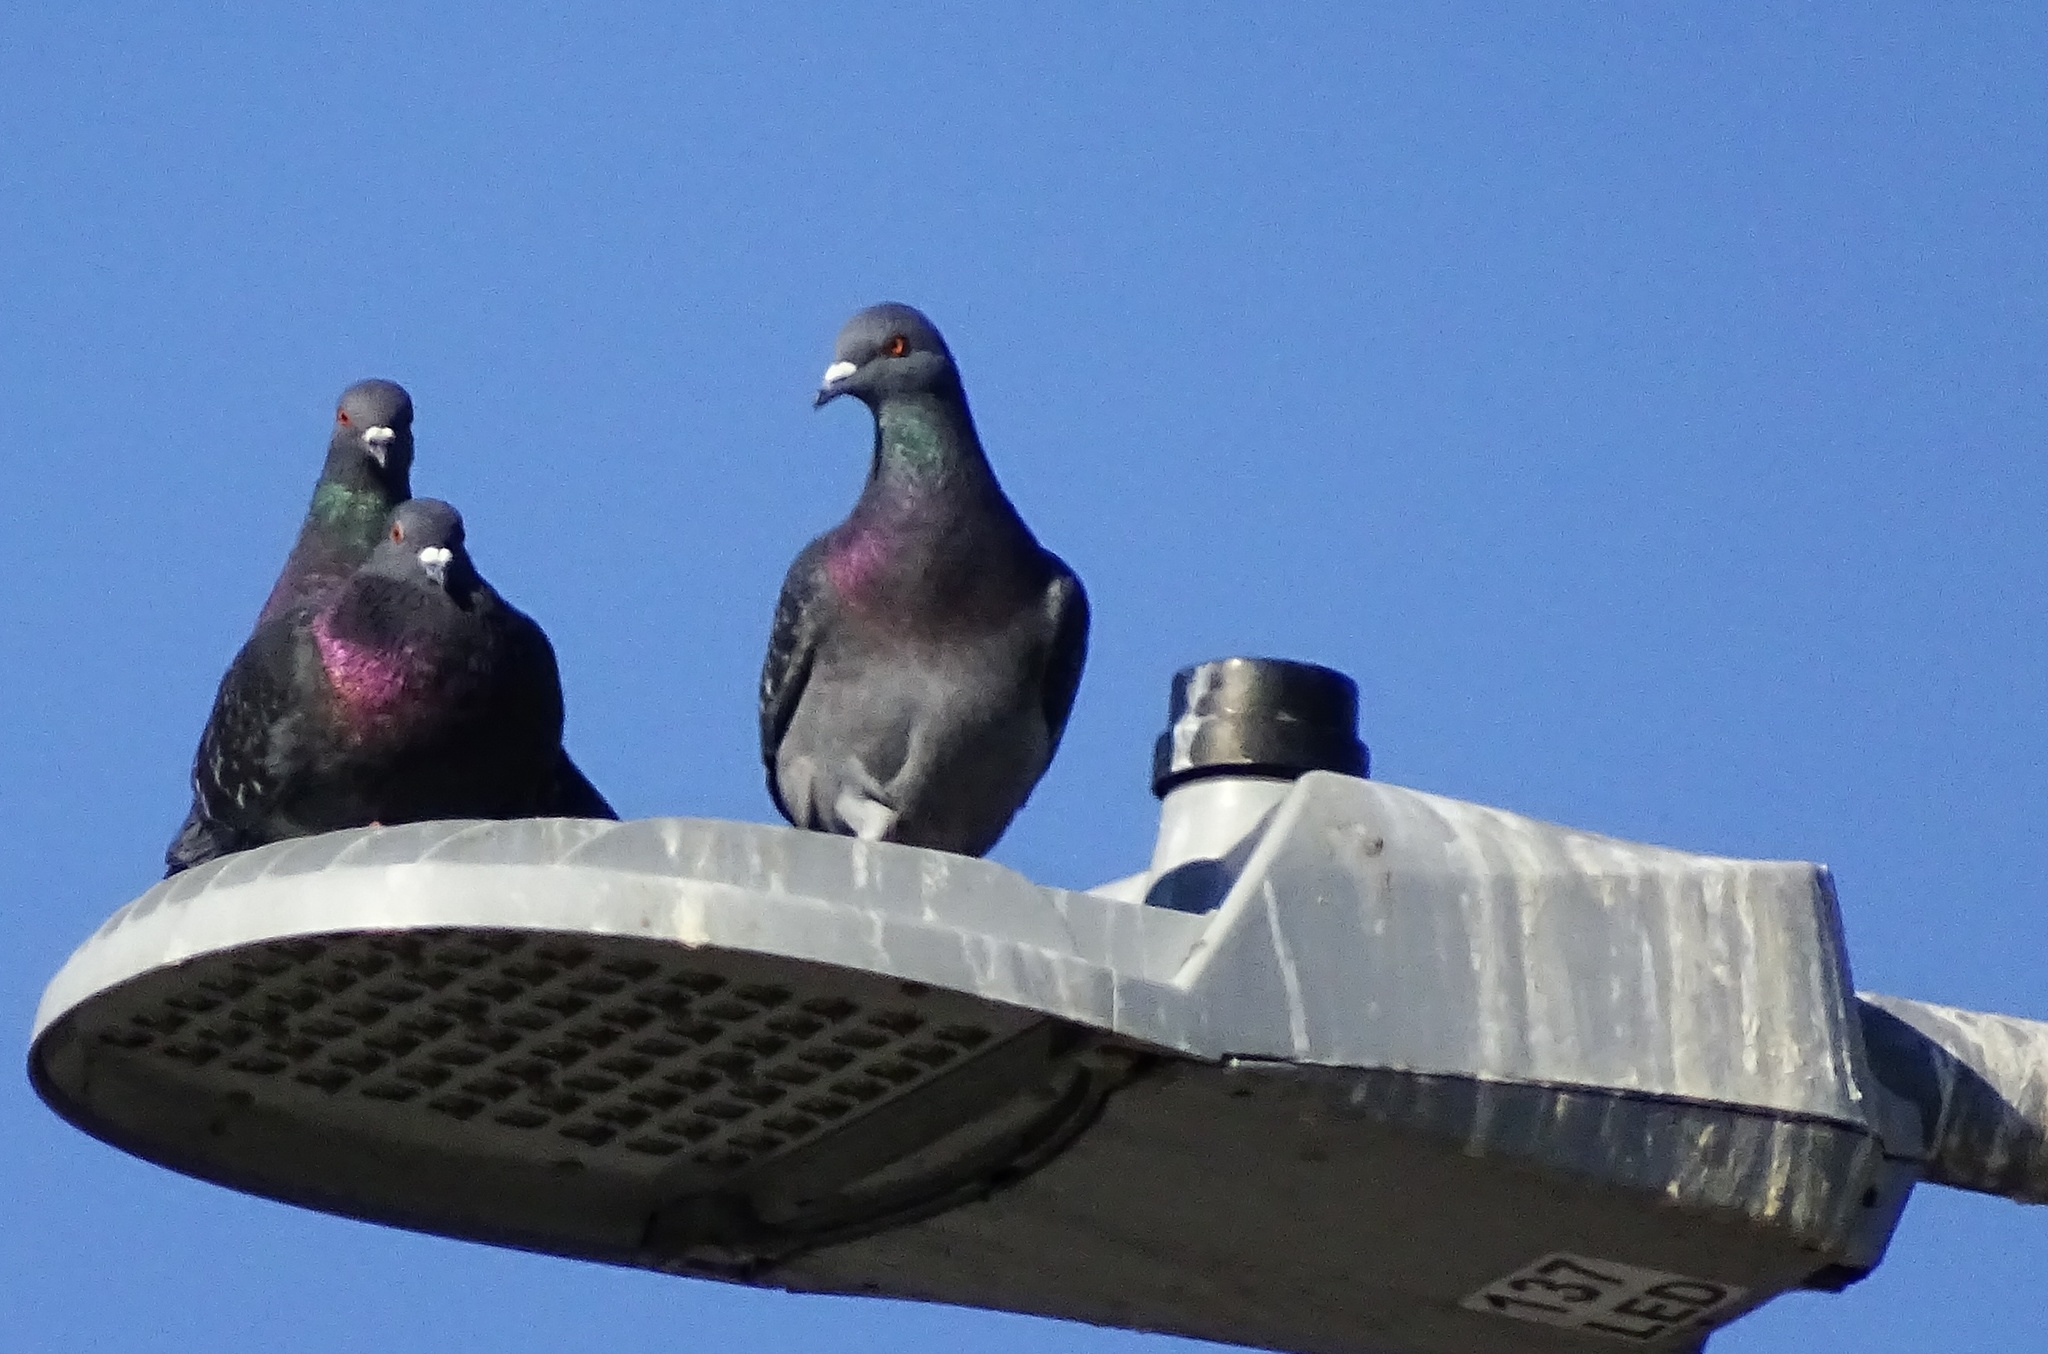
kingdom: Animalia
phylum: Chordata
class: Aves
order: Columbiformes
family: Columbidae
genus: Columba
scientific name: Columba livia
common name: Rock pigeon
